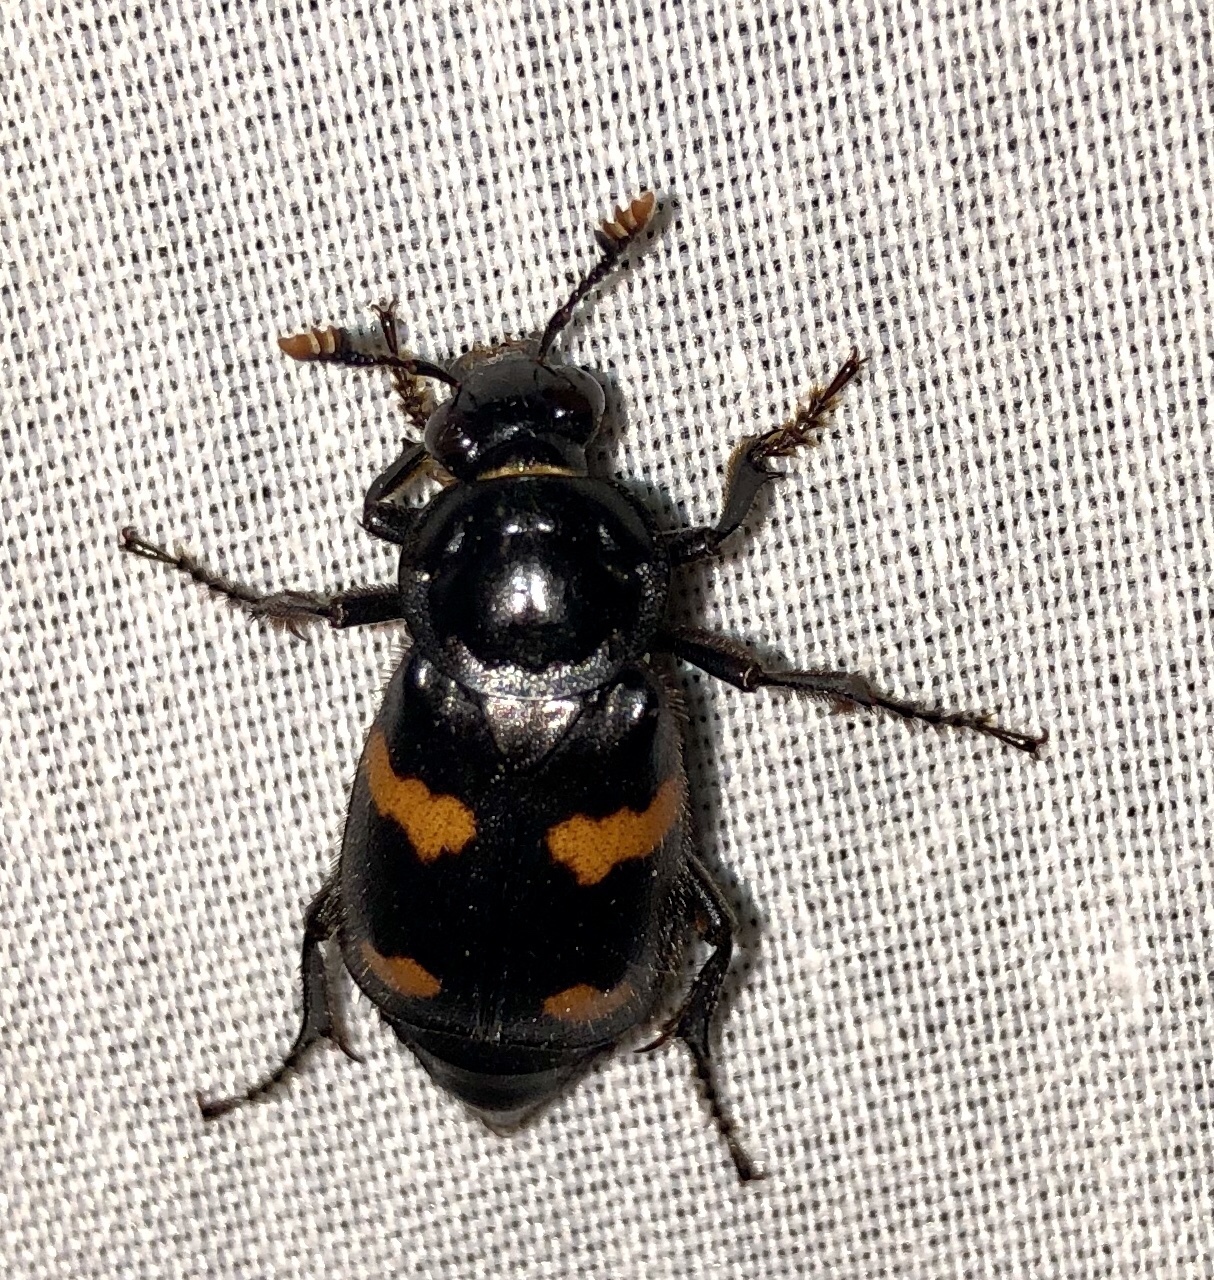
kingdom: Animalia
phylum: Arthropoda
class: Insecta
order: Coleoptera
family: Staphylinidae
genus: Nicrophorus
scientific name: Nicrophorus orbicollis
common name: Roundneck sexton beetle
